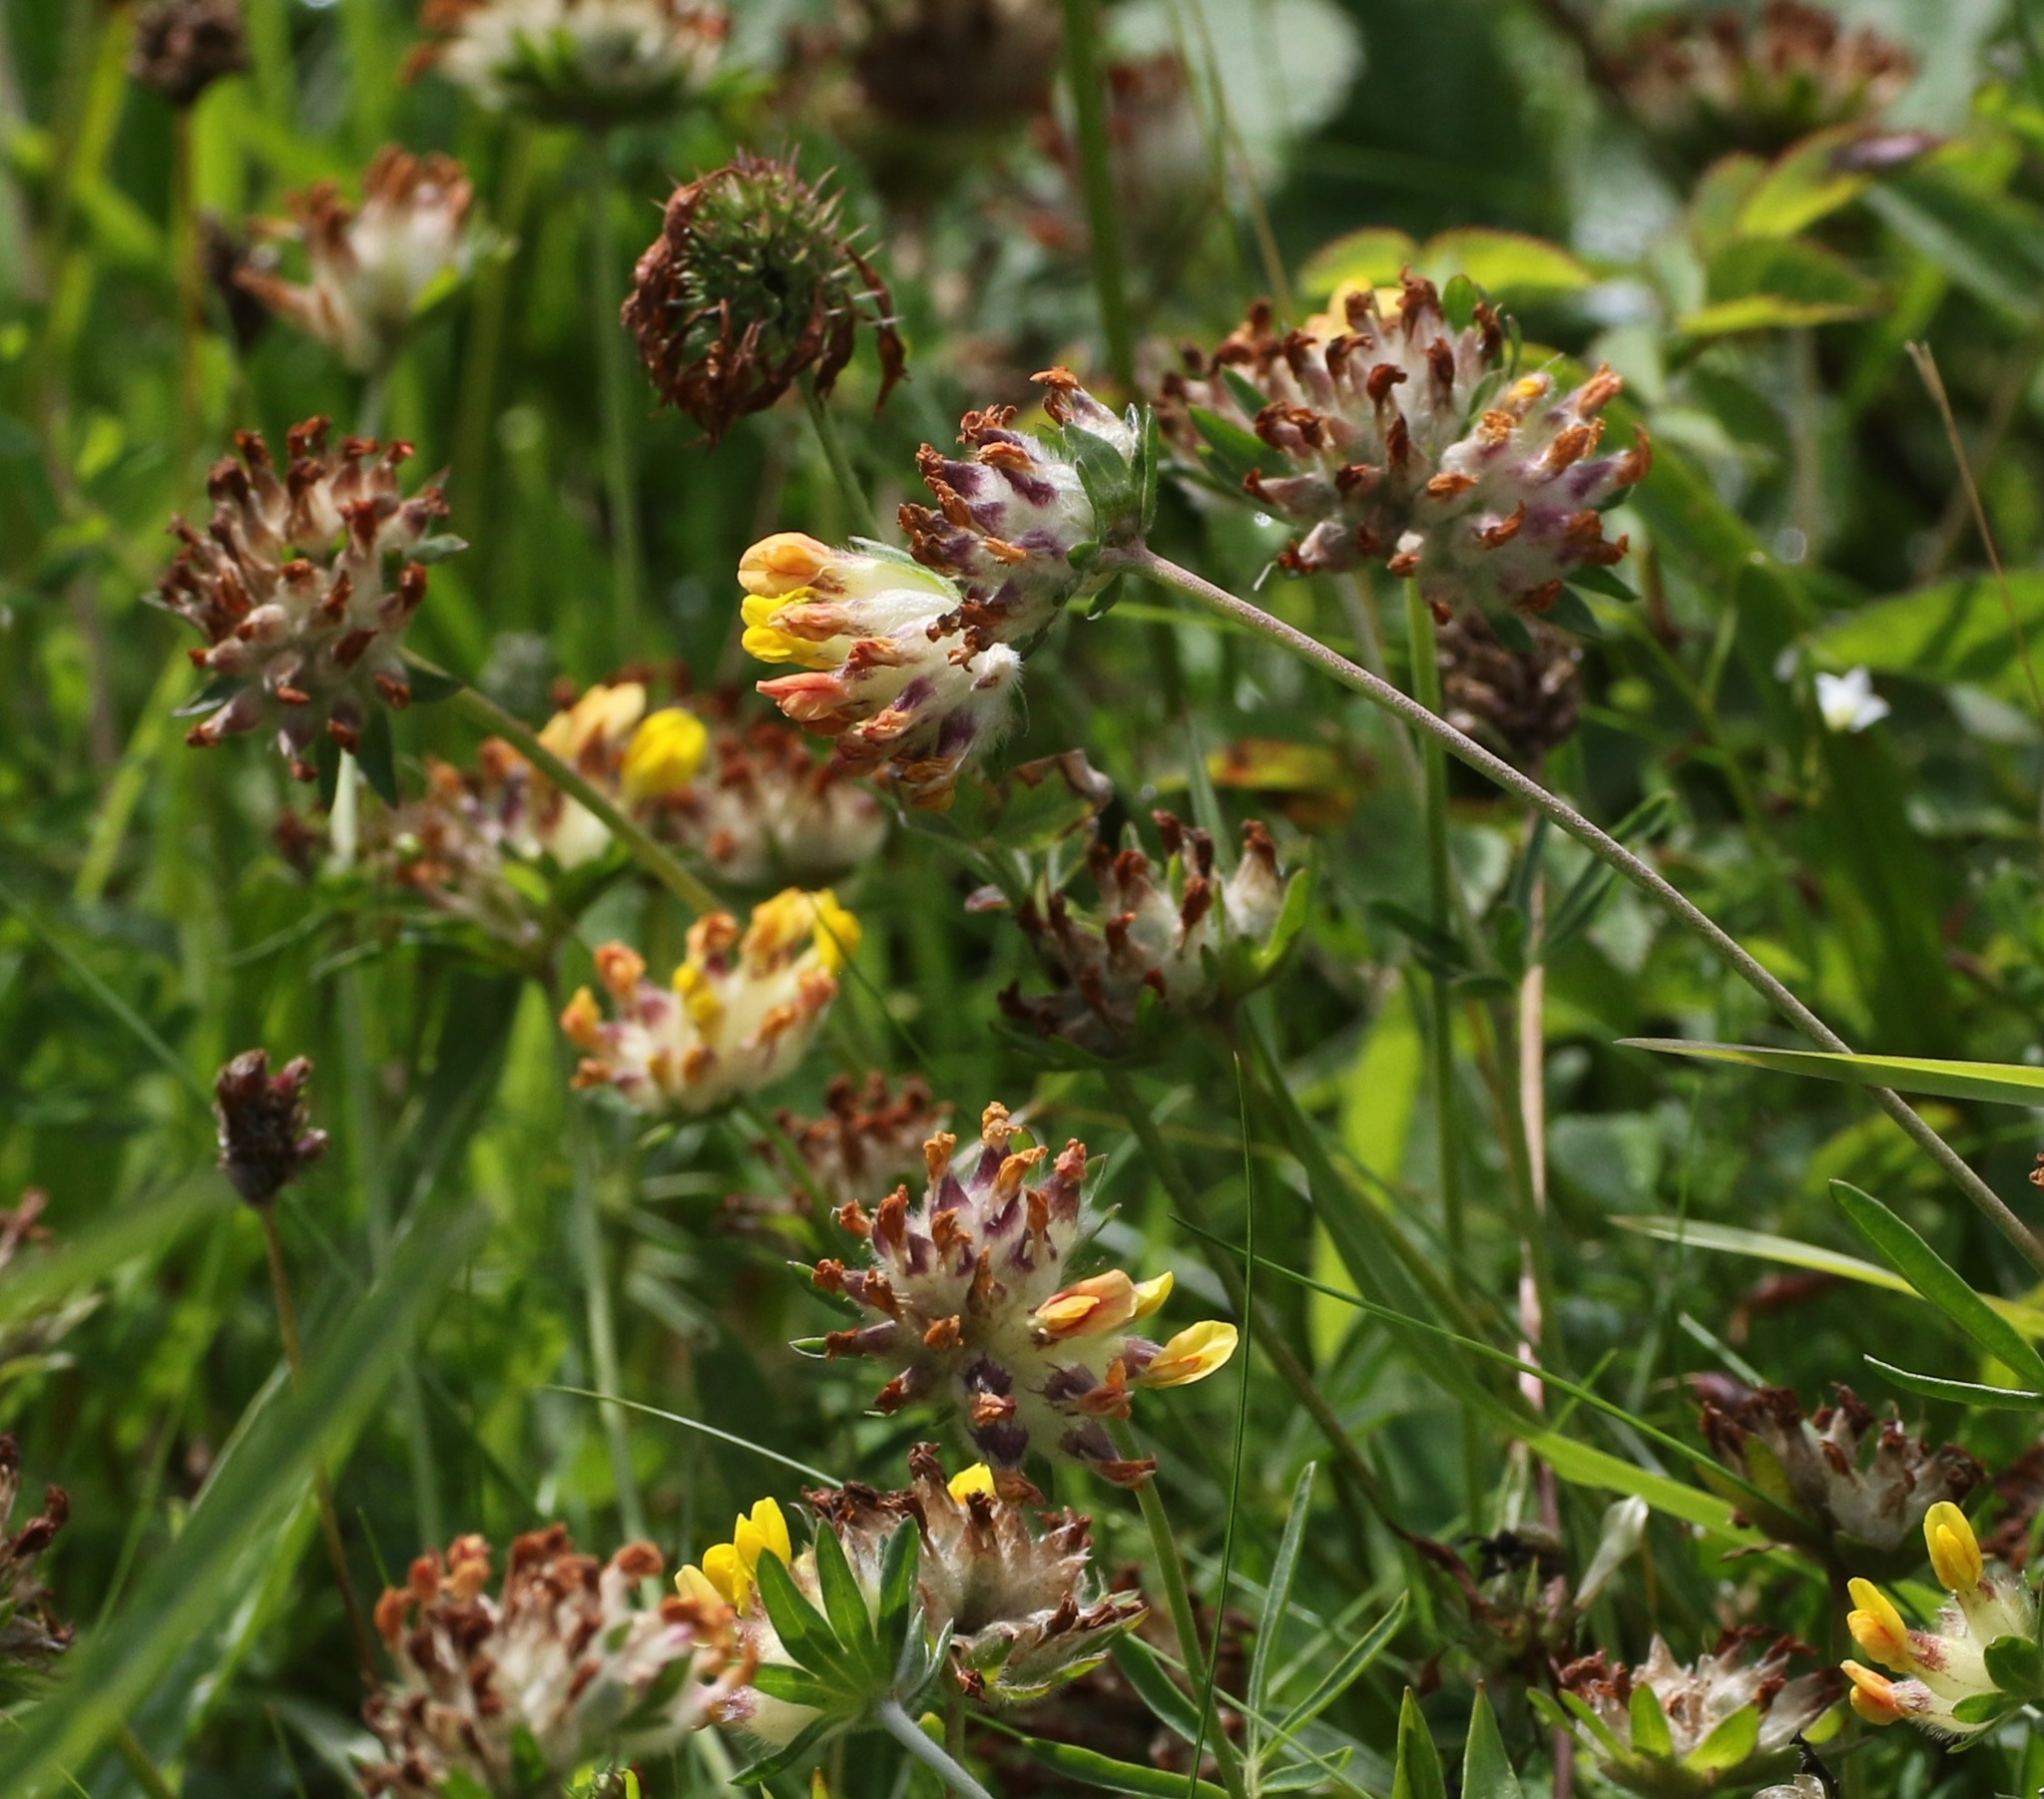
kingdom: Plantae
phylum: Tracheophyta
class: Magnoliopsida
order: Fabales
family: Fabaceae
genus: Anthyllis
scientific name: Anthyllis vulneraria
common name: Kidney vetch
